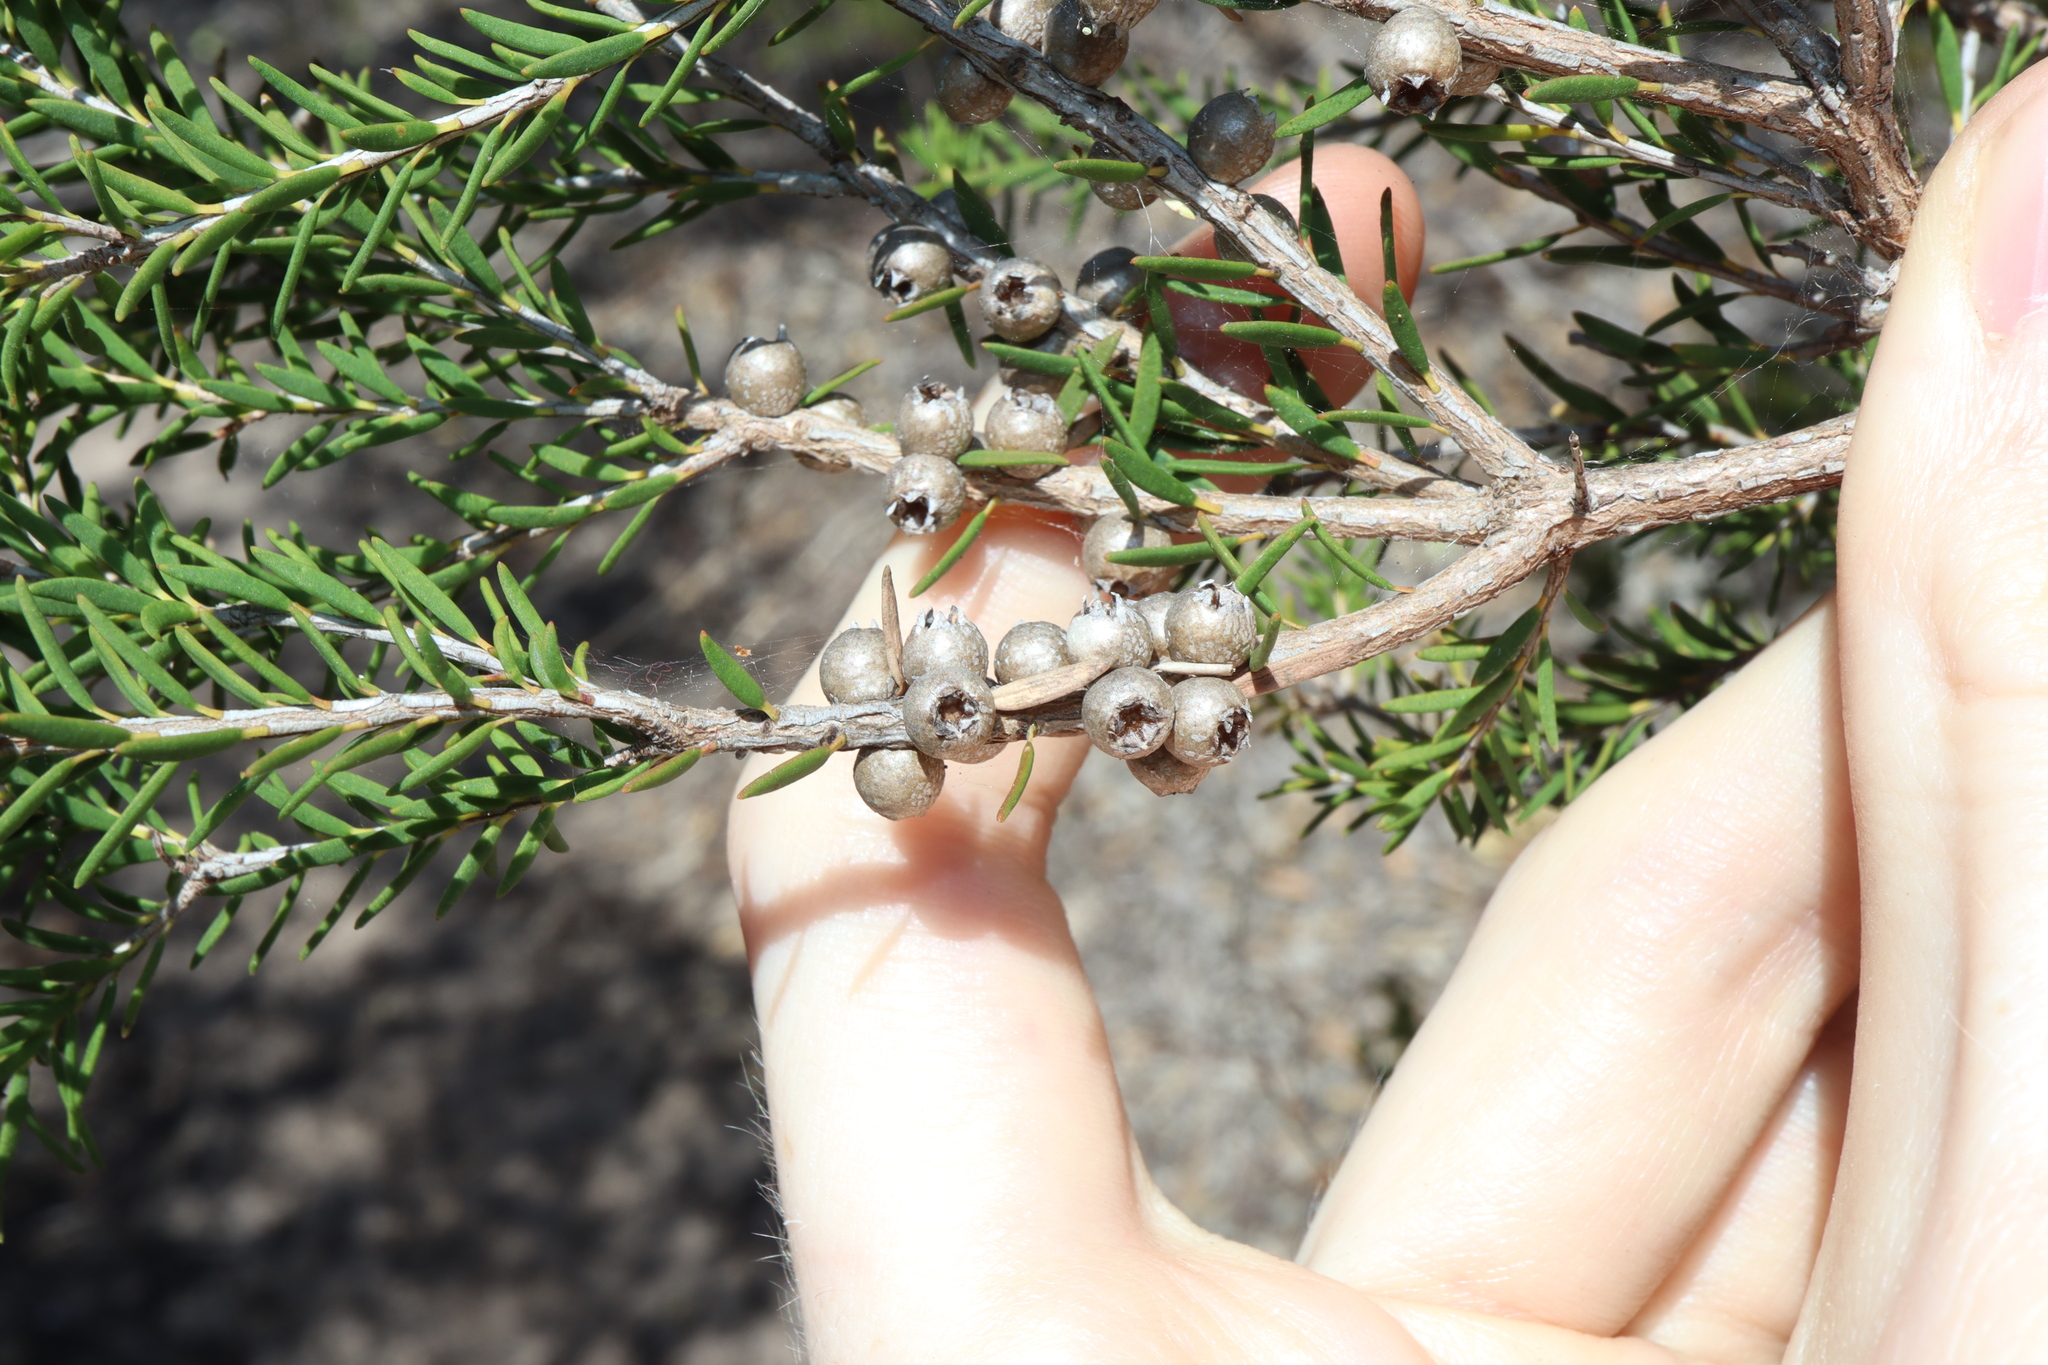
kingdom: Plantae
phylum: Tracheophyta
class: Magnoliopsida
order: Myrtales
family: Myrtaceae
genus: Melaleuca
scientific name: Melaleuca lanceolata
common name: Rottnest island teatree
